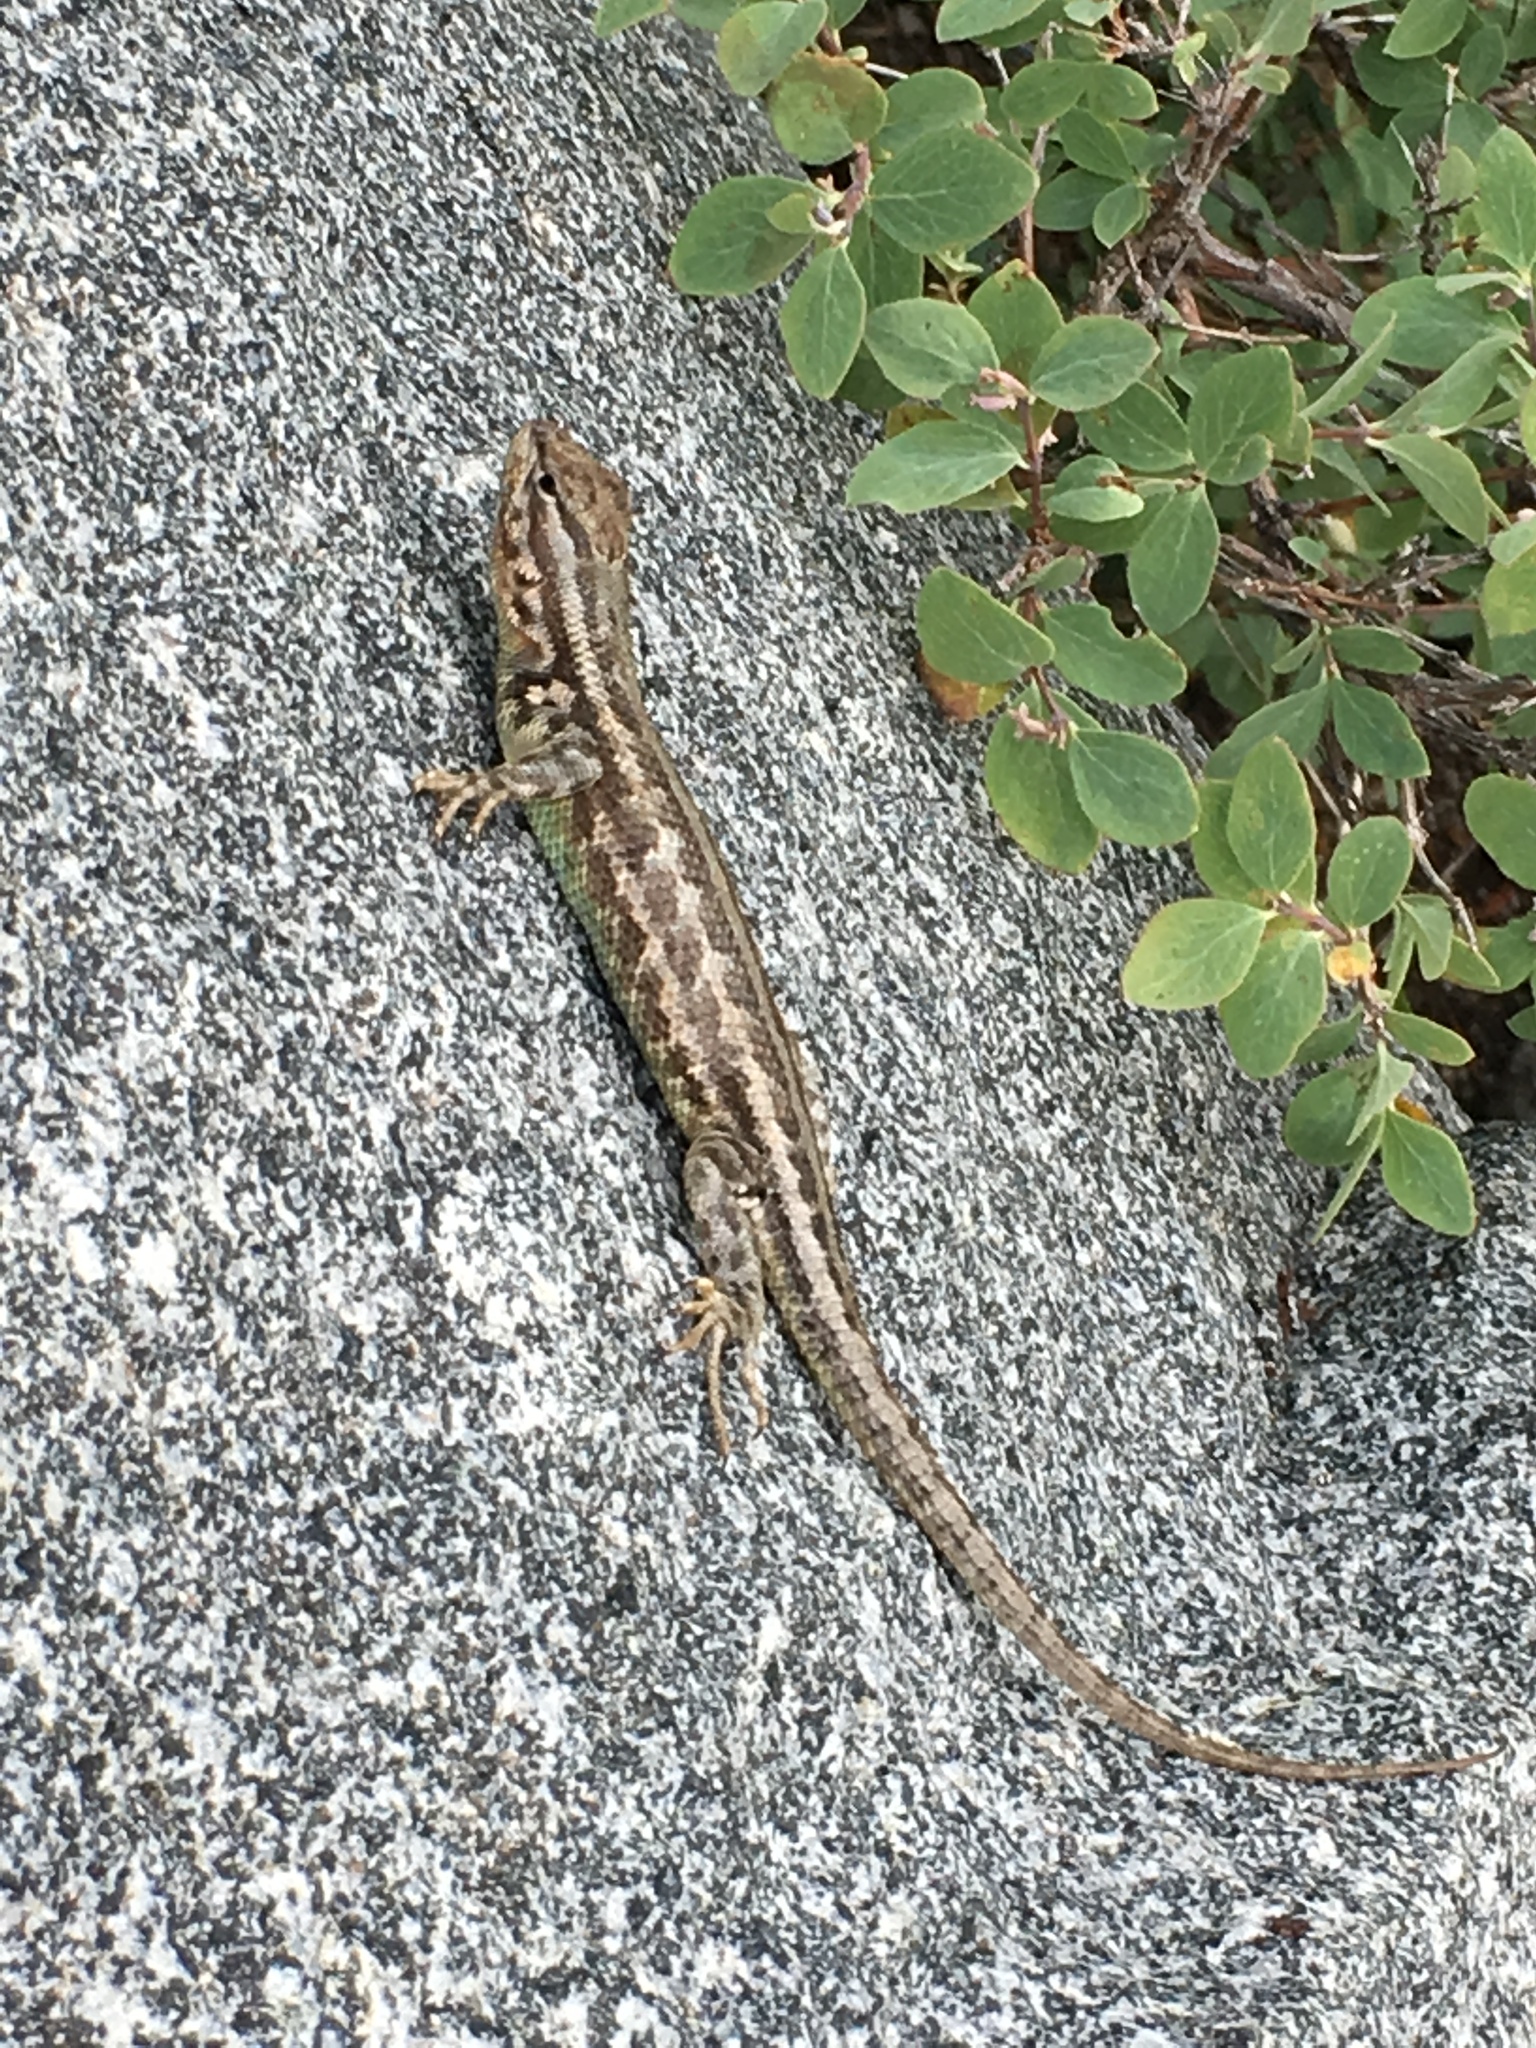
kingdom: Animalia
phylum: Chordata
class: Squamata
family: Phrynosomatidae
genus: Sceloporus
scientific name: Sceloporus graciosus
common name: Sagebrush lizard
